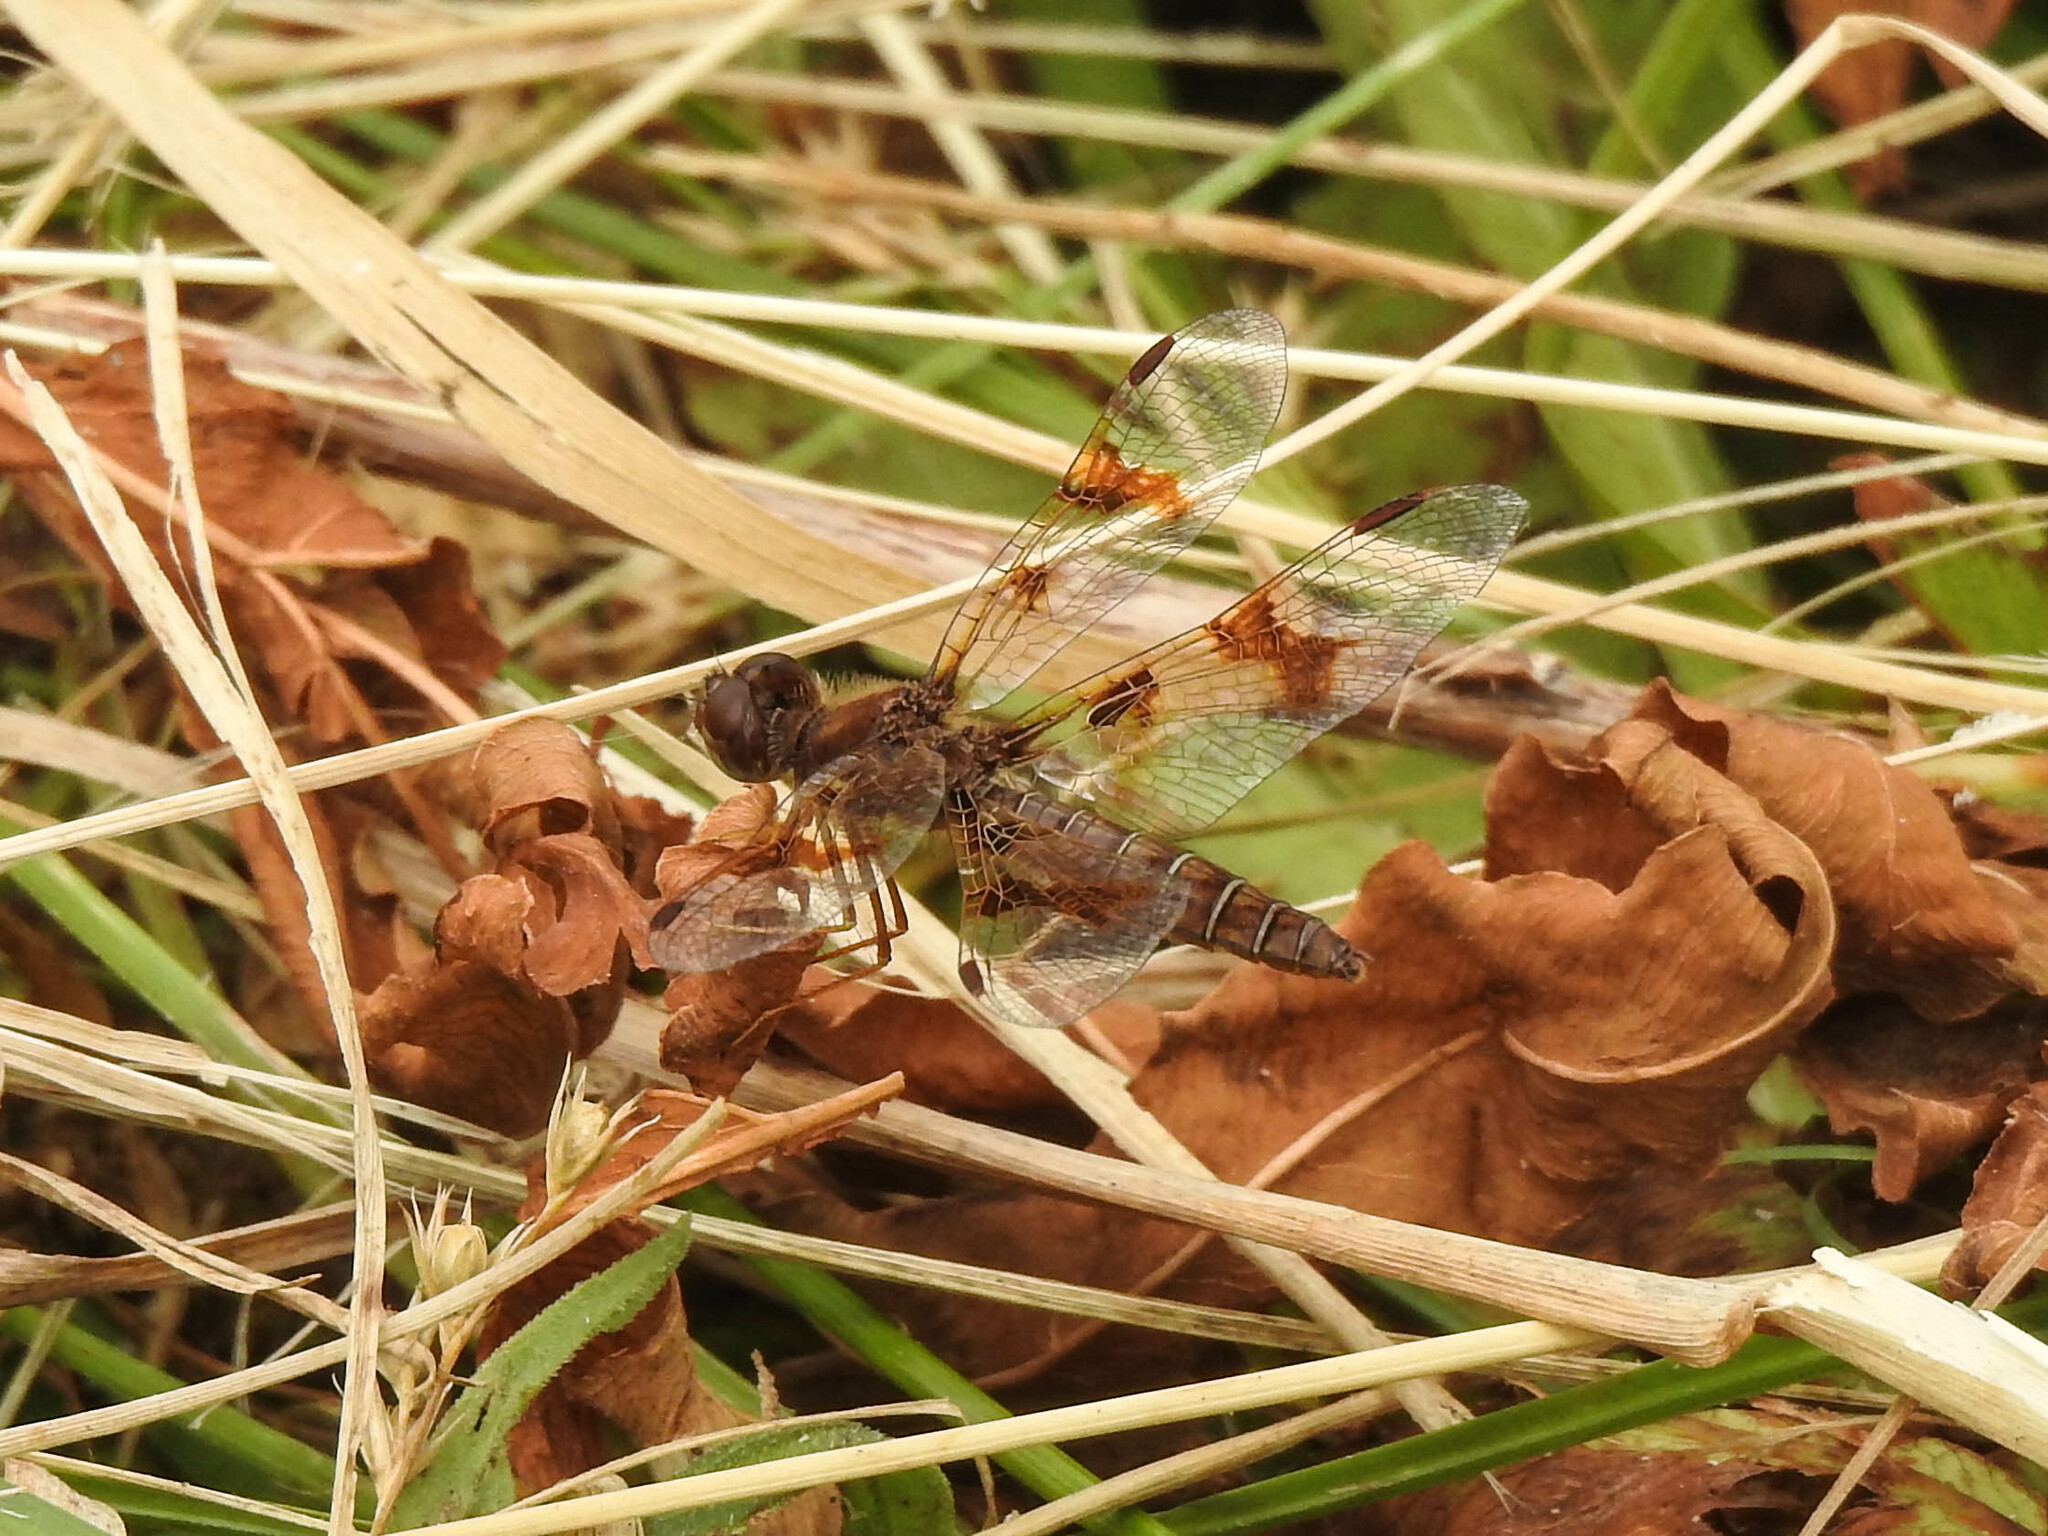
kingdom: Animalia
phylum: Arthropoda
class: Insecta
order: Odonata
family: Libellulidae
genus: Perithemis
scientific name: Perithemis tenera
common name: Eastern amberwing
